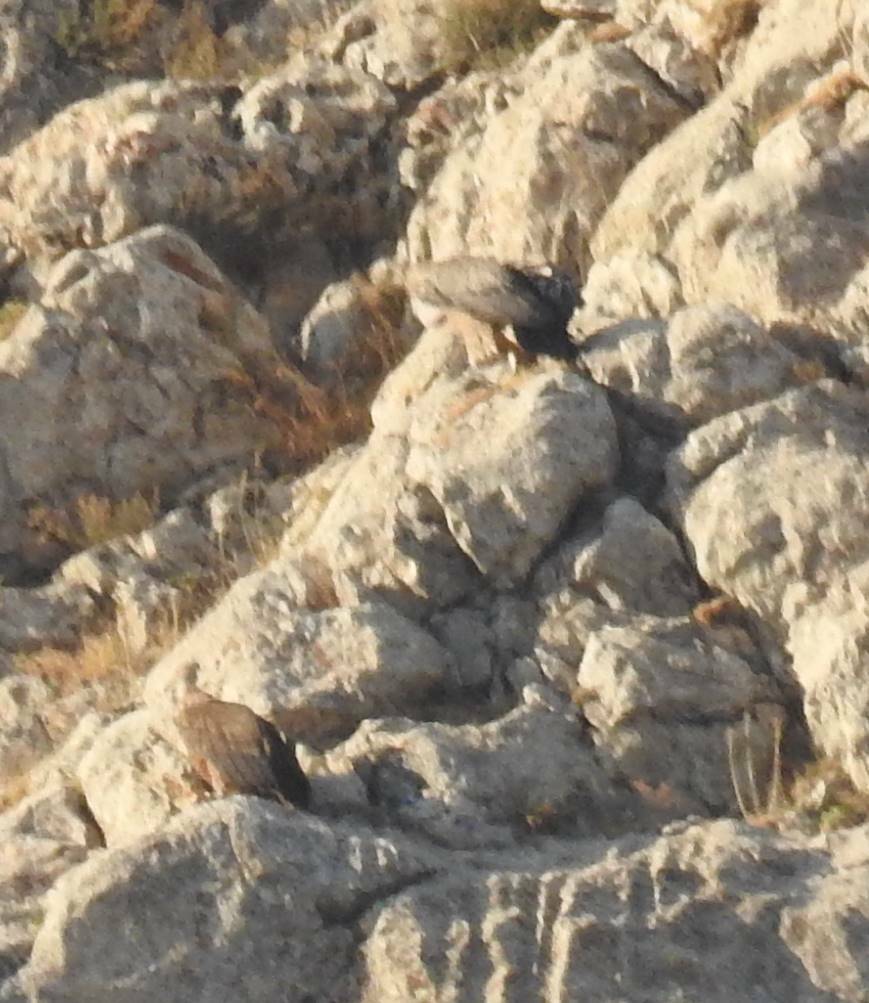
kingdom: Animalia
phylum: Chordata
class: Aves
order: Accipitriformes
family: Accipitridae
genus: Gyps
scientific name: Gyps fulvus
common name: Griffon vulture
